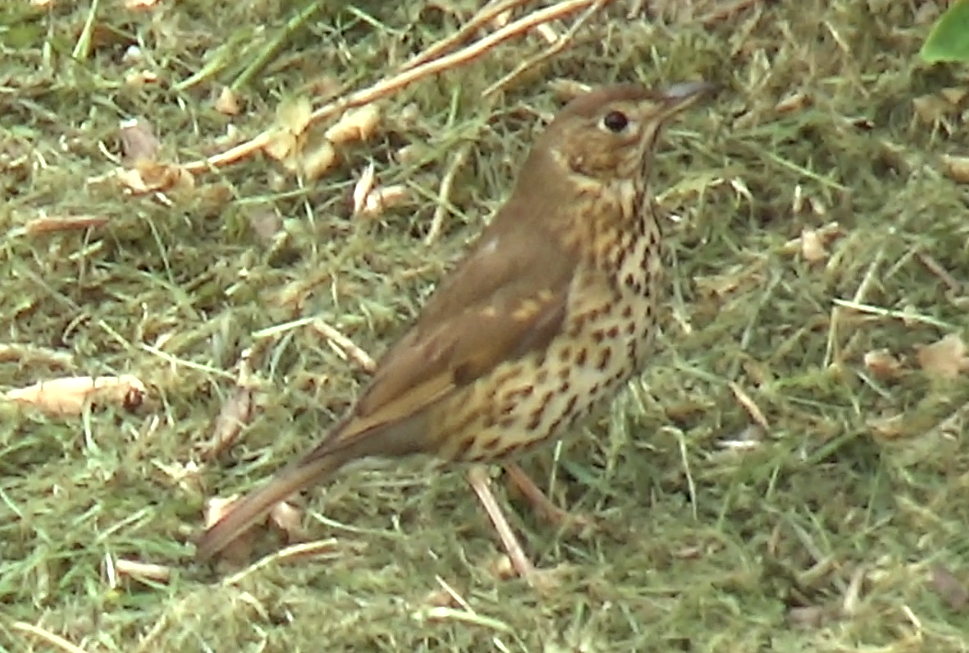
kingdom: Animalia
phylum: Chordata
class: Aves
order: Passeriformes
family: Turdidae
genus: Turdus
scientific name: Turdus philomelos
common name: Song thrush
